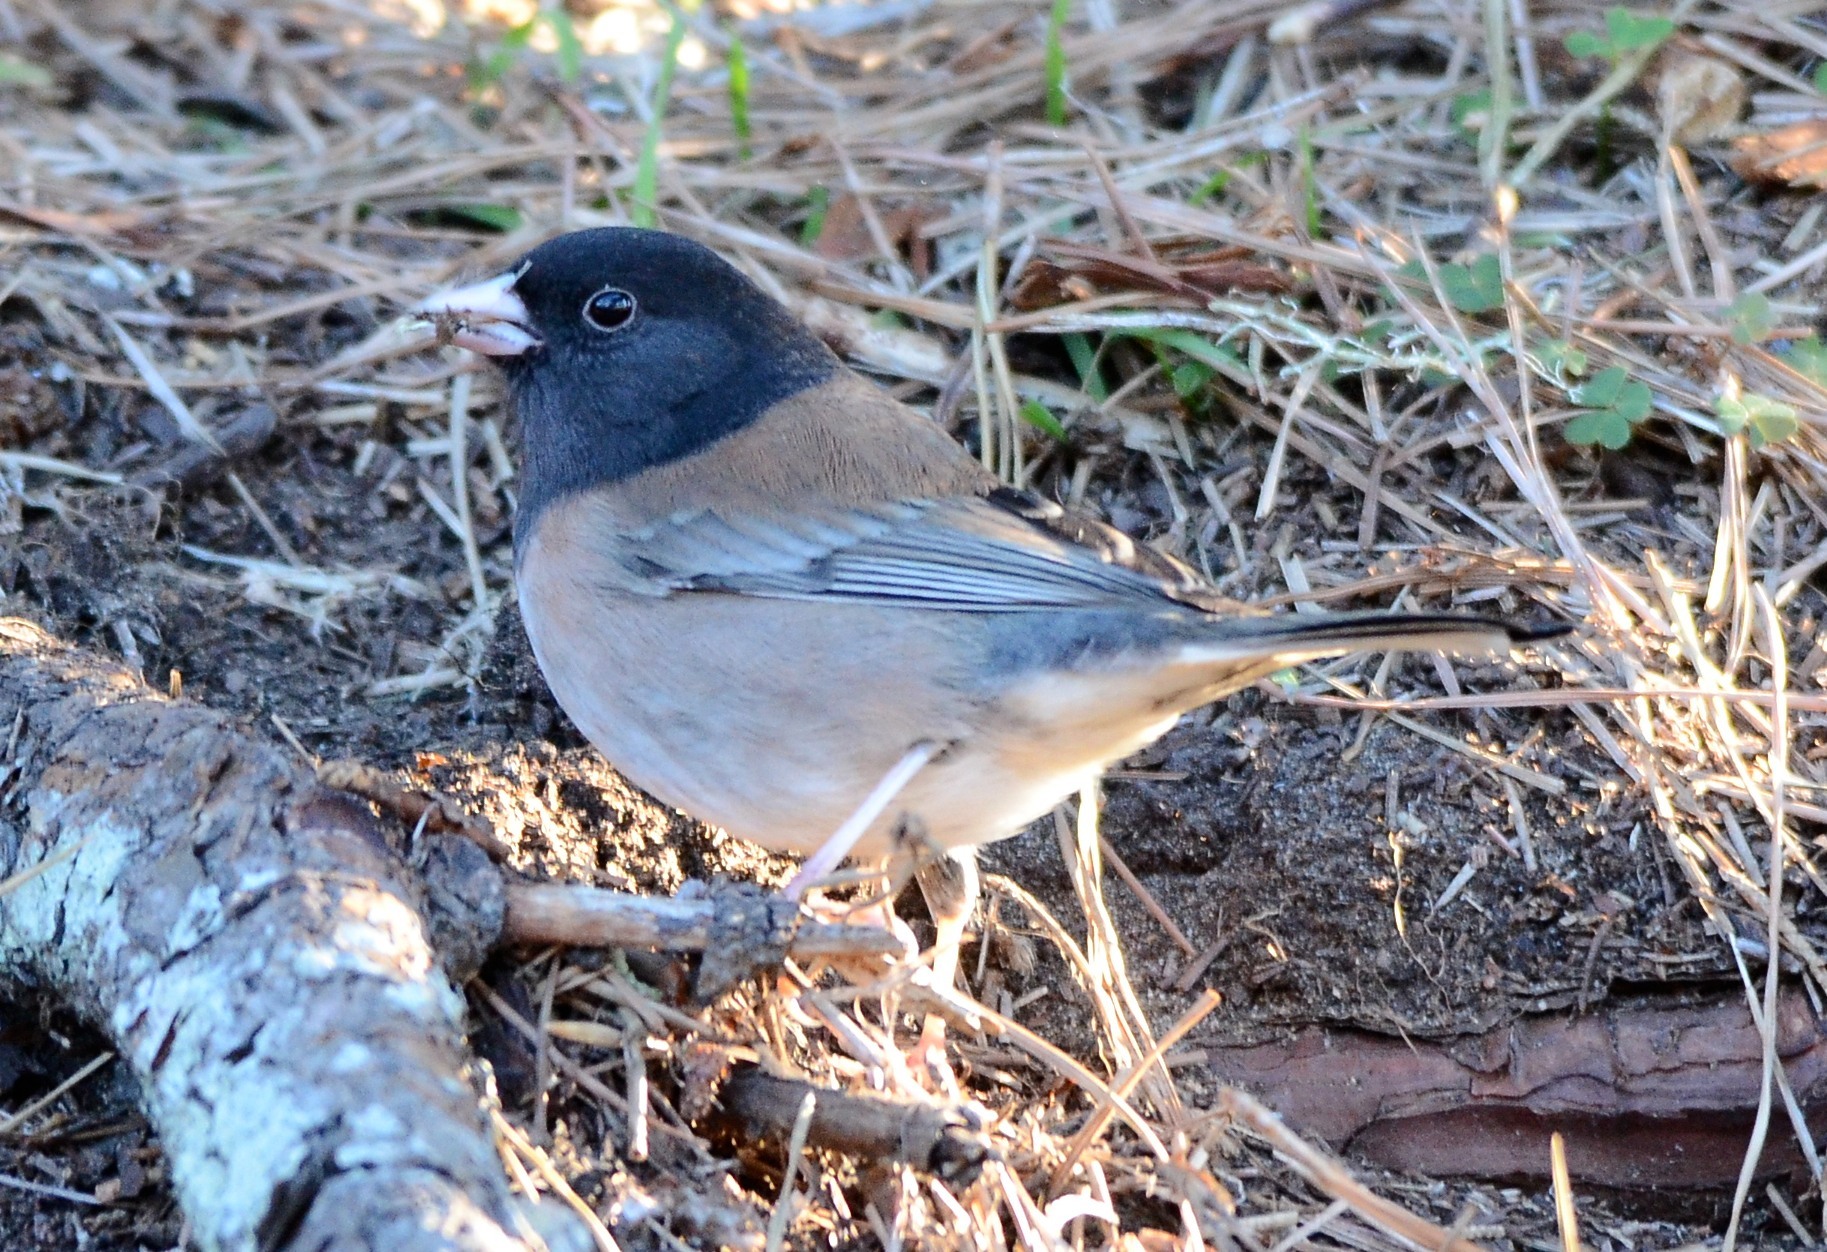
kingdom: Animalia
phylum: Chordata
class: Aves
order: Passeriformes
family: Passerellidae
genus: Junco
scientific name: Junco hyemalis
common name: Dark-eyed junco
